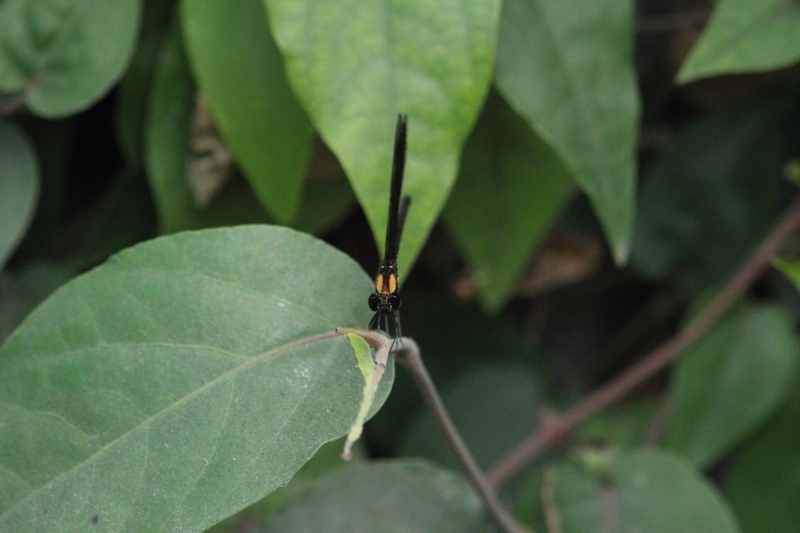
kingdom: Animalia
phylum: Arthropoda
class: Insecta
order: Odonata
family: Chlorocyphidae
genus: Heliocypha
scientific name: Heliocypha fenestrata
